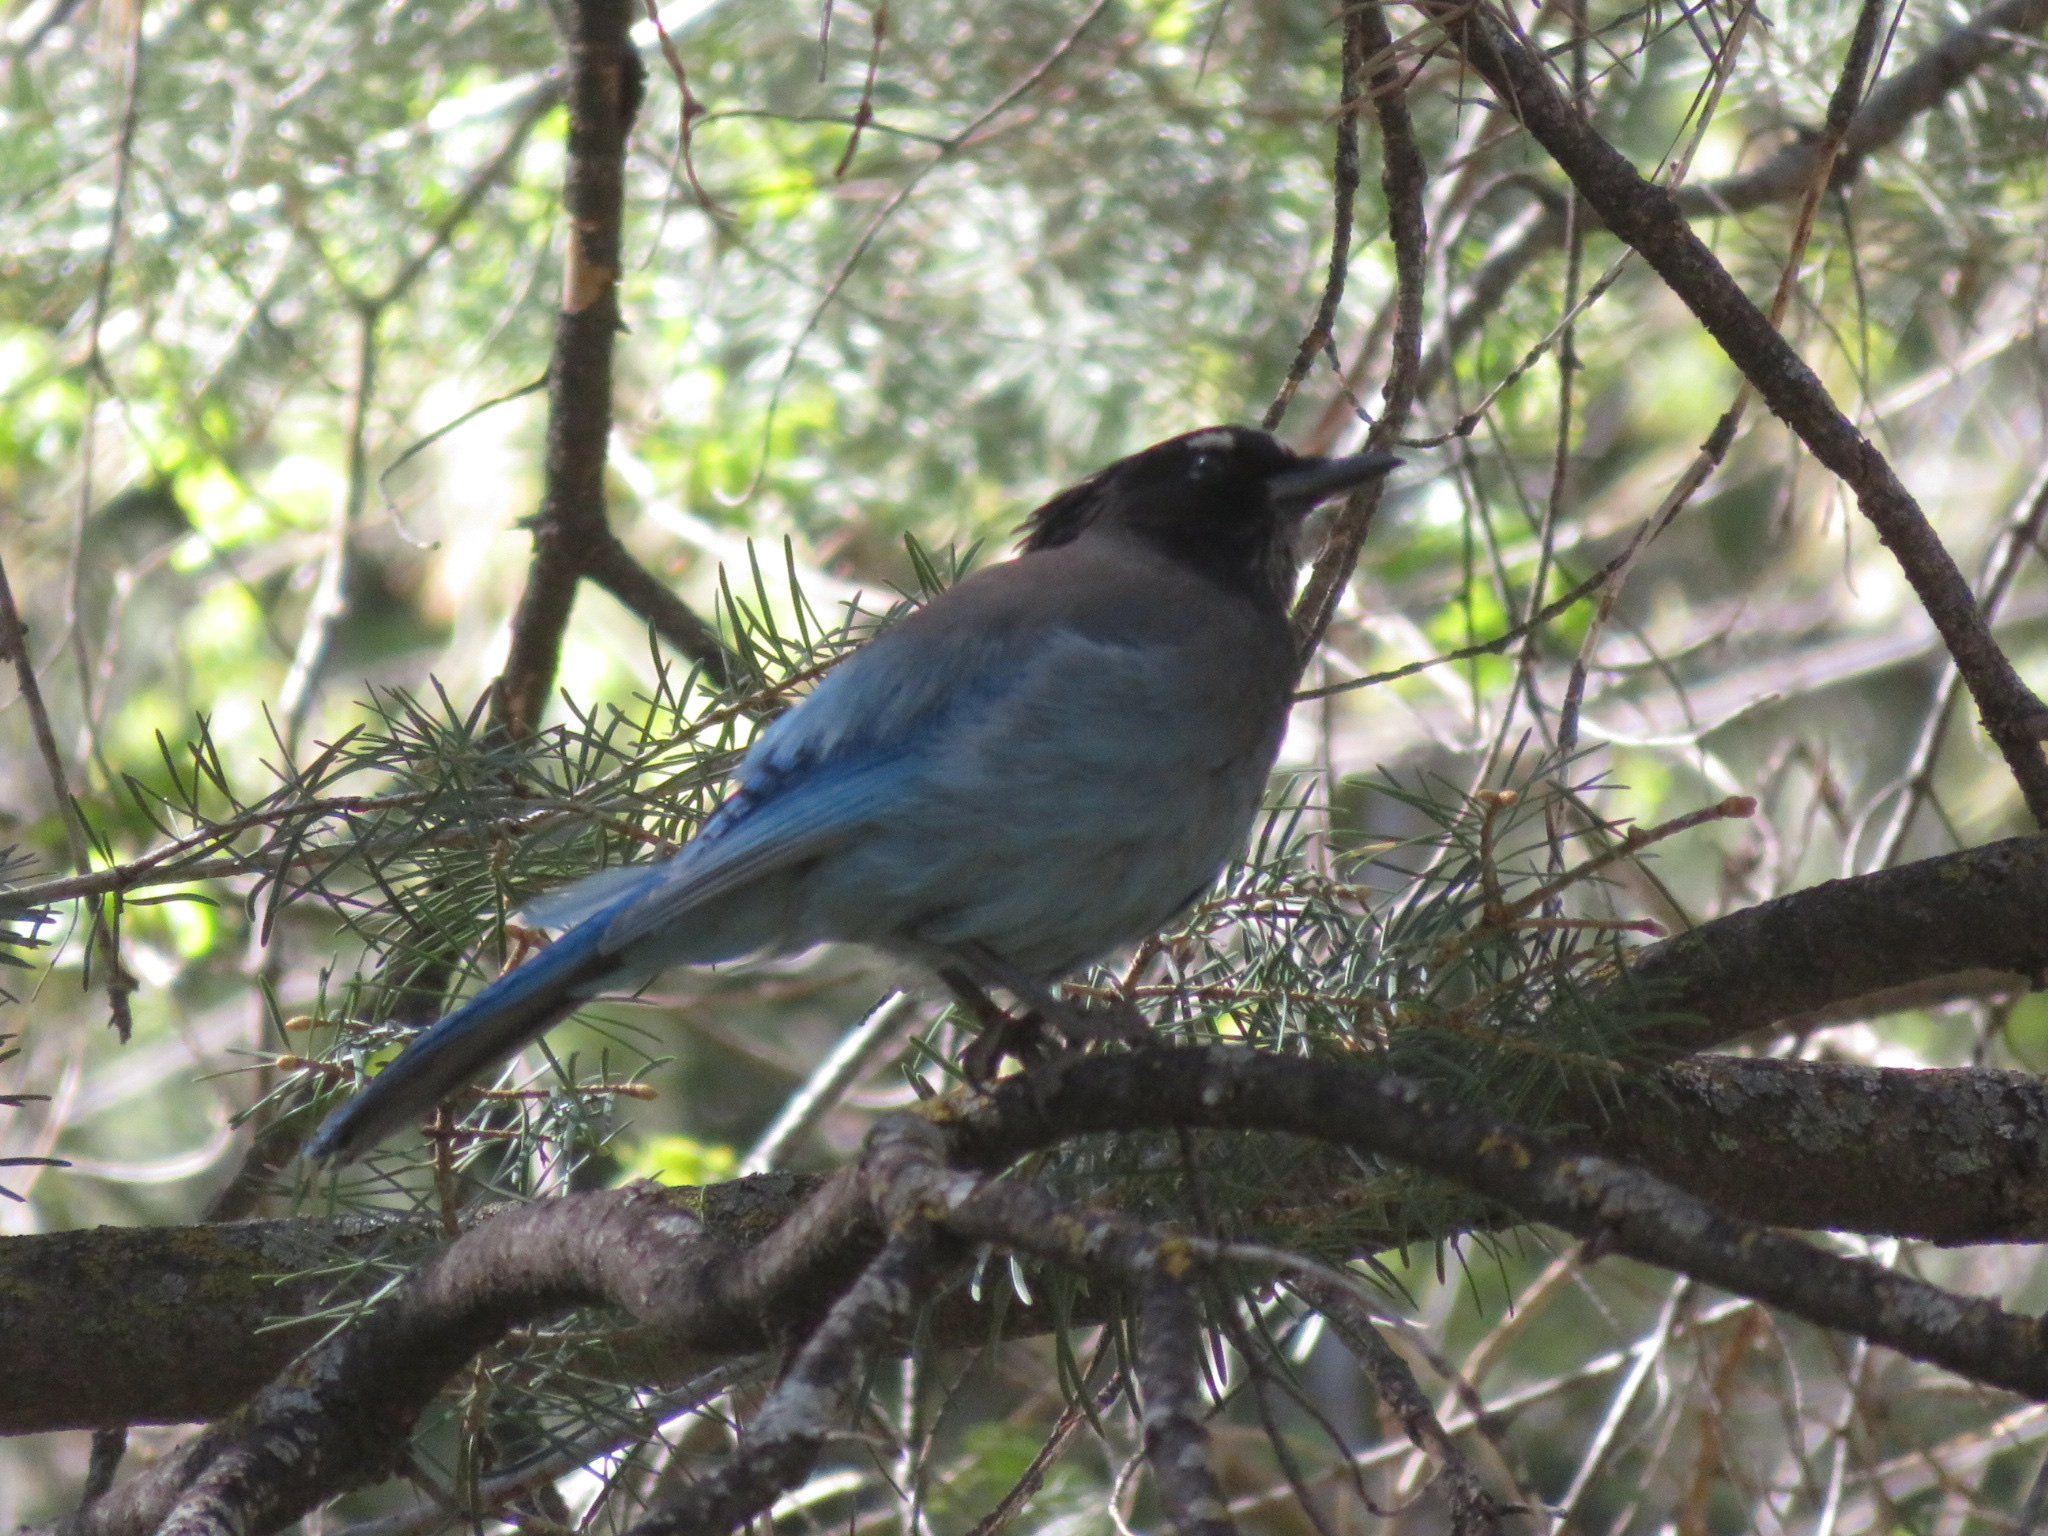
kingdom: Animalia
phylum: Chordata
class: Aves
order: Passeriformes
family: Corvidae
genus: Cyanocitta
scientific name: Cyanocitta stelleri
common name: Steller's jay
